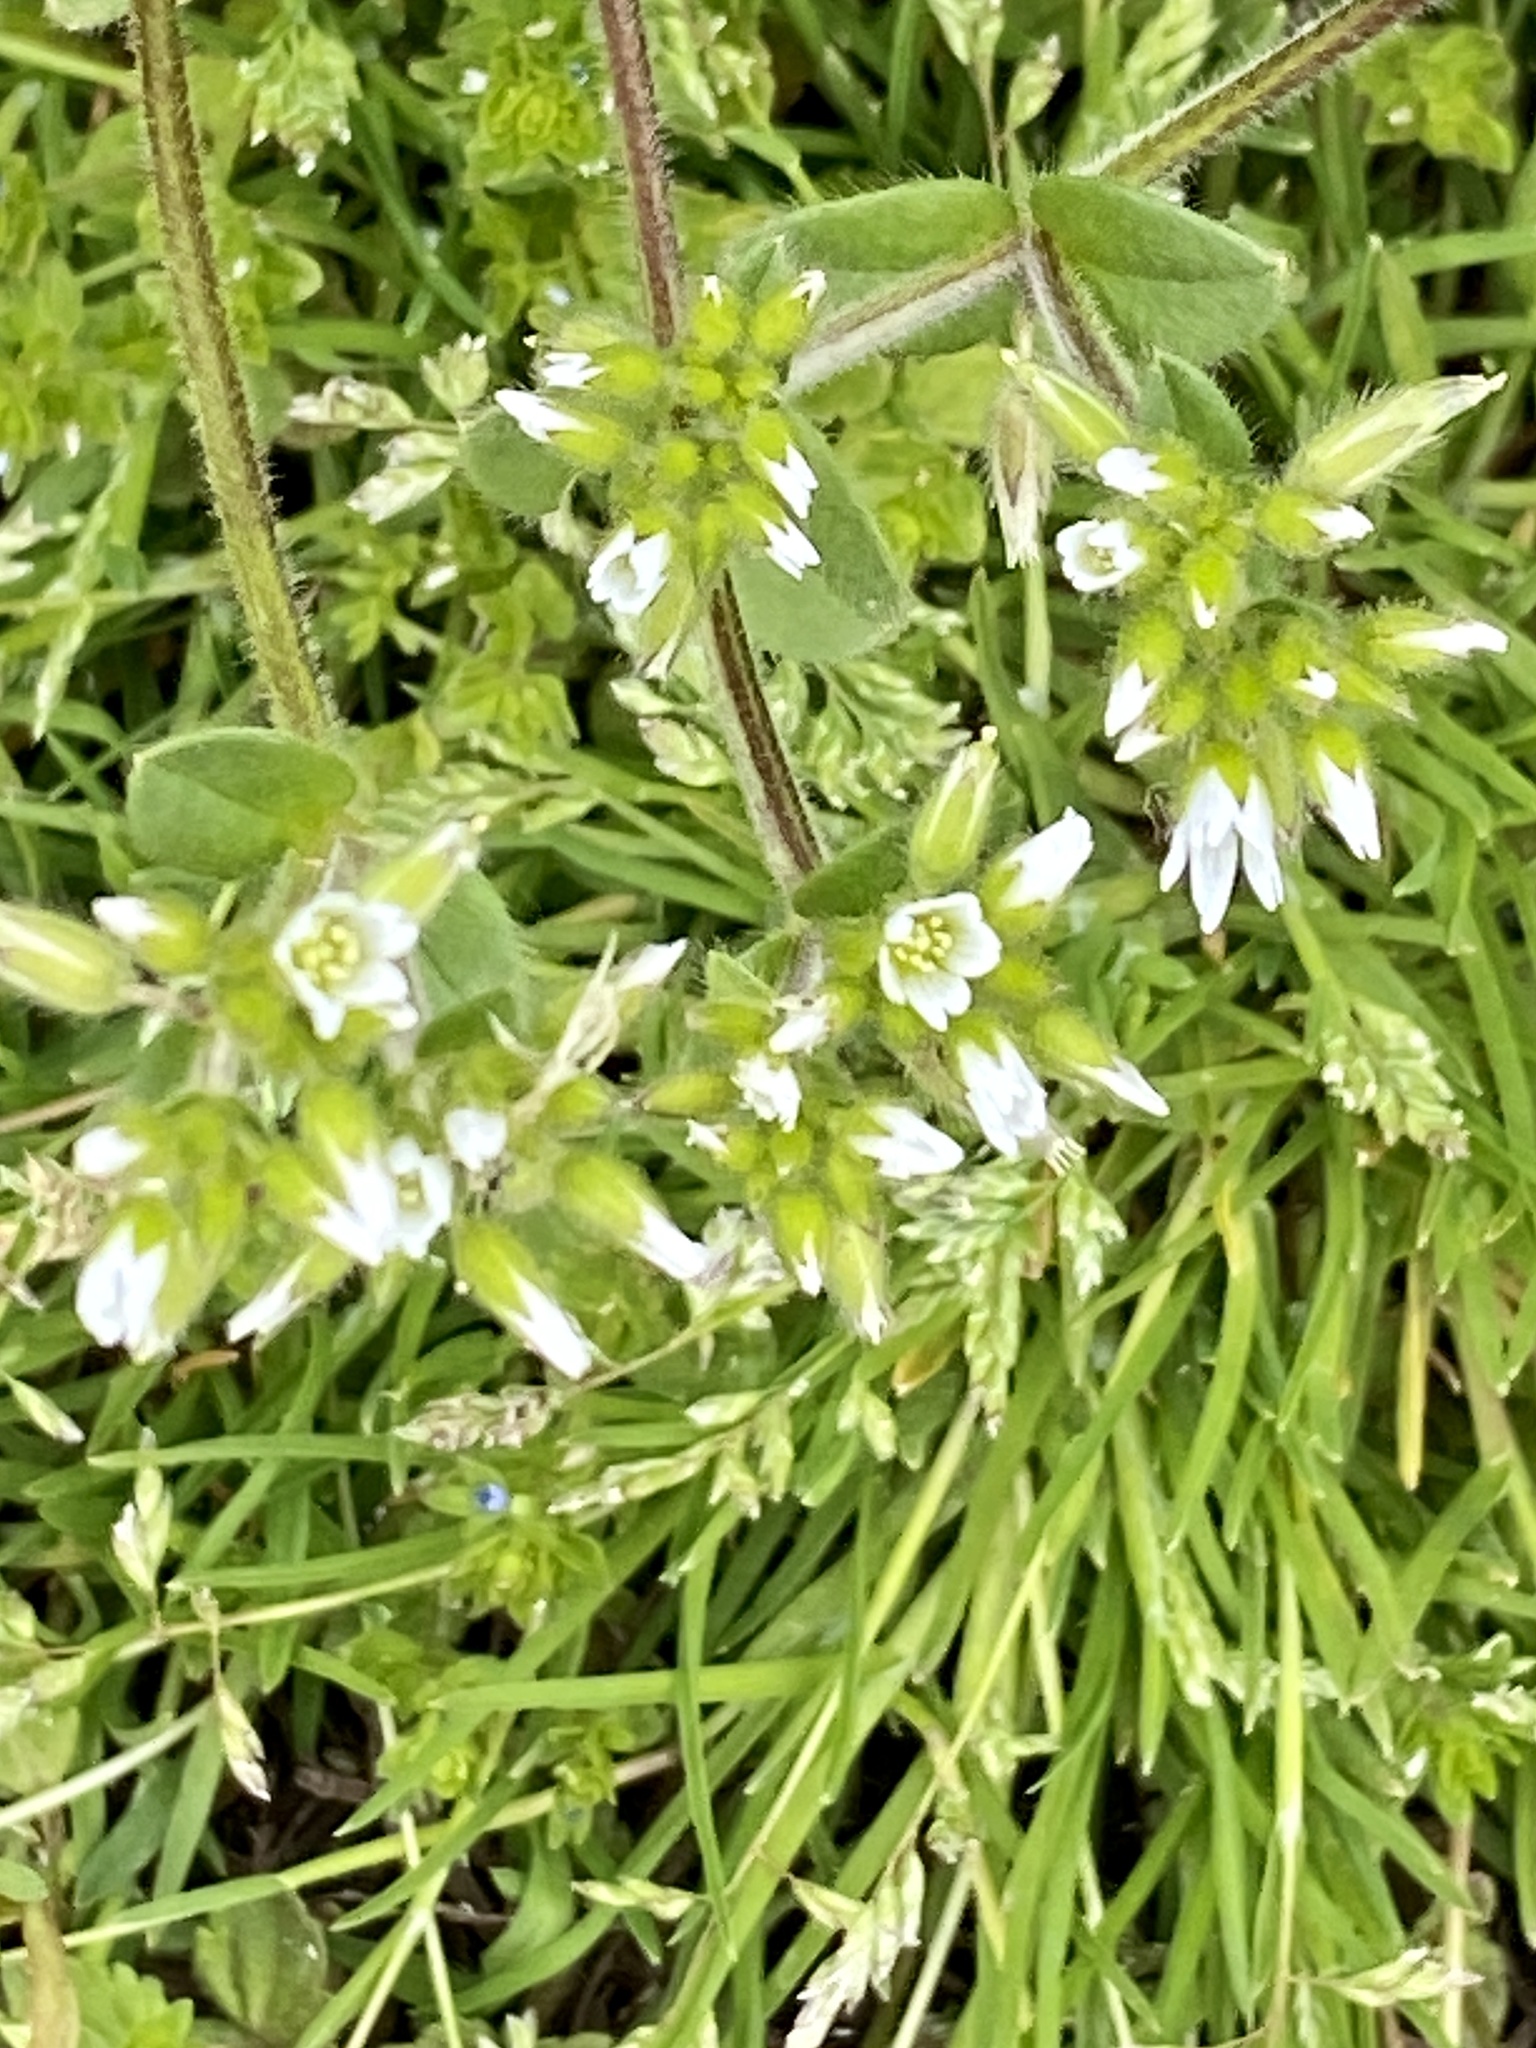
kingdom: Plantae
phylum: Tracheophyta
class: Magnoliopsida
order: Caryophyllales
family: Caryophyllaceae
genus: Cerastium
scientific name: Cerastium glomeratum
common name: Sticky chickweed
